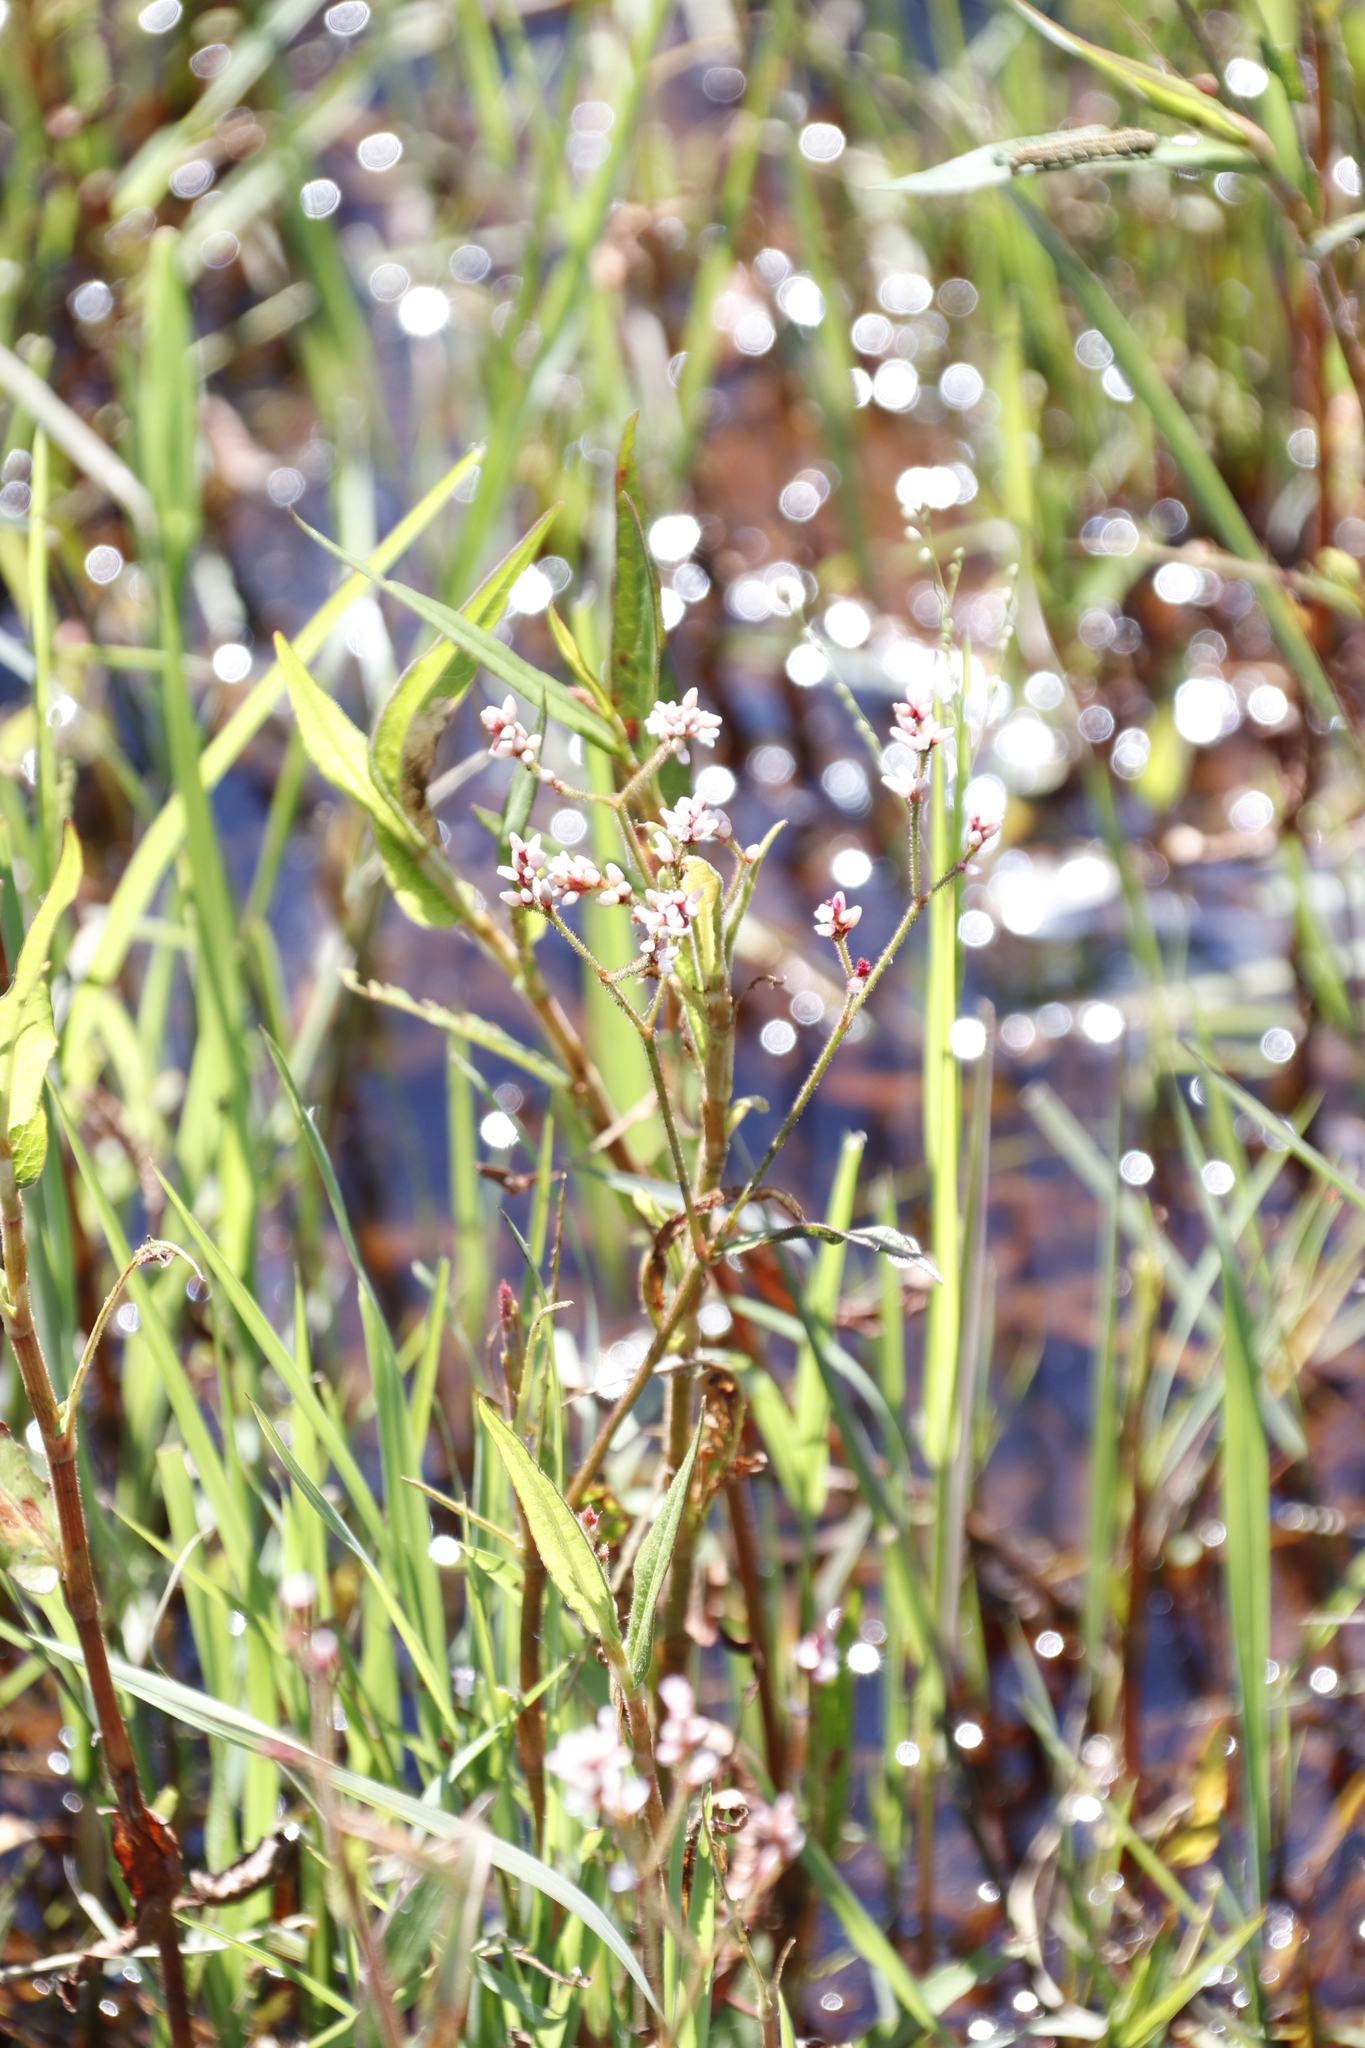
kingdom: Plantae
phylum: Tracheophyta
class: Magnoliopsida
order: Caryophyllales
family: Polygonaceae
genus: Persicaria
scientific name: Persicaria hystricula
